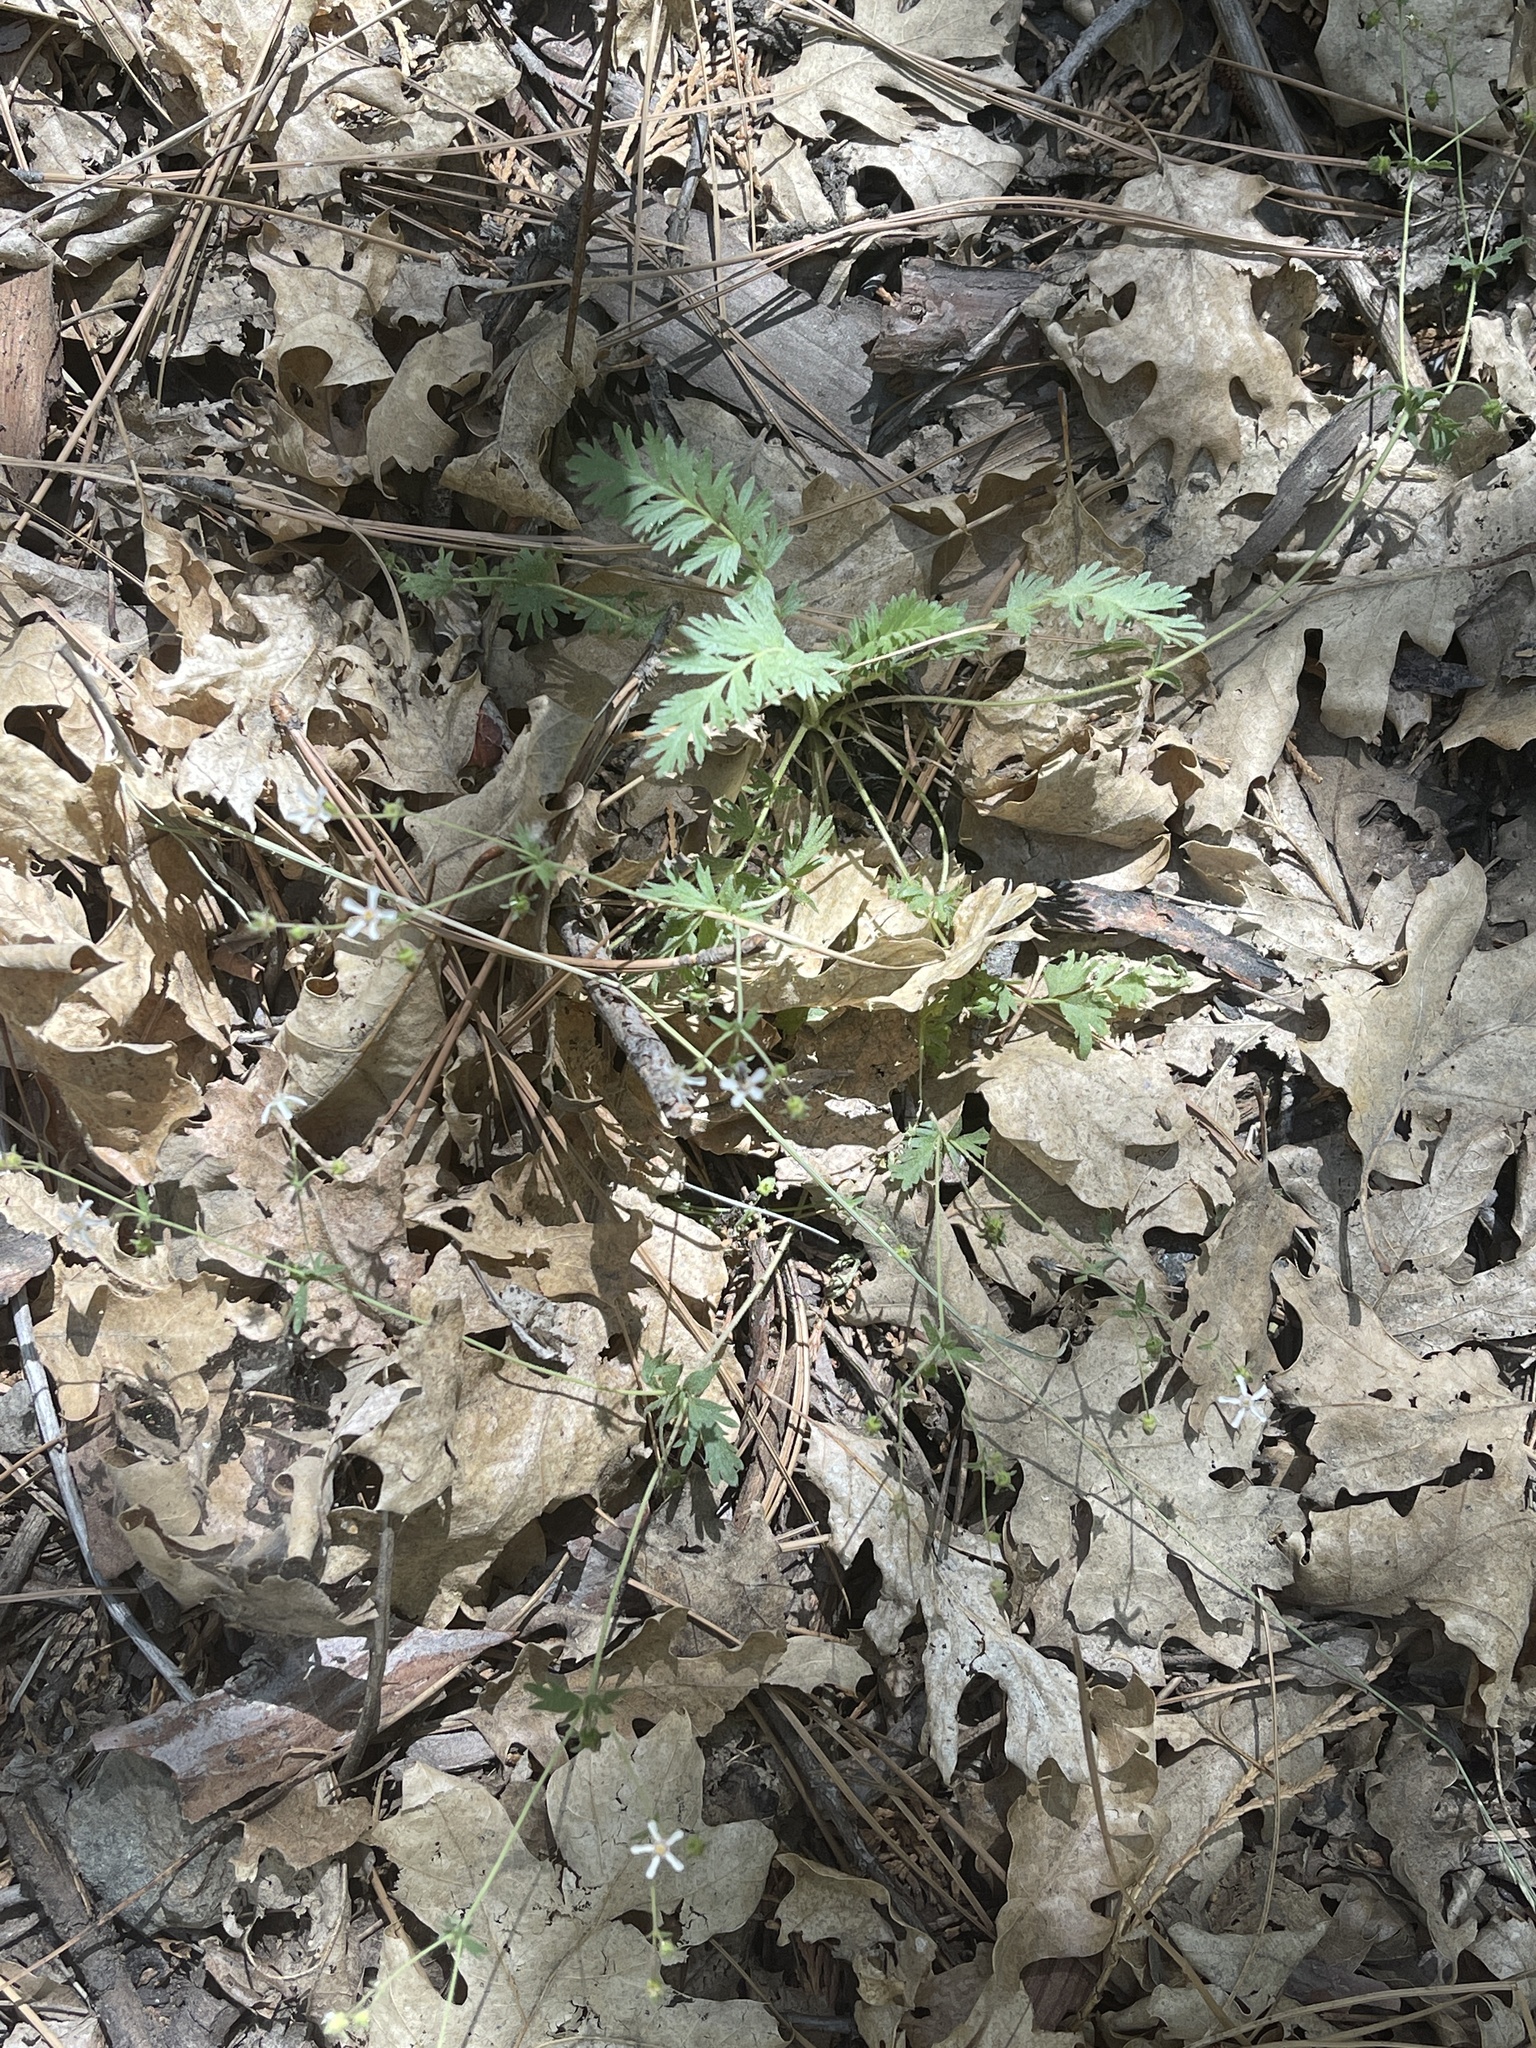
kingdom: Plantae
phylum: Tracheophyta
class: Magnoliopsida
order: Rosales
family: Rosaceae
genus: Potentilla
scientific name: Potentilla wilderae
